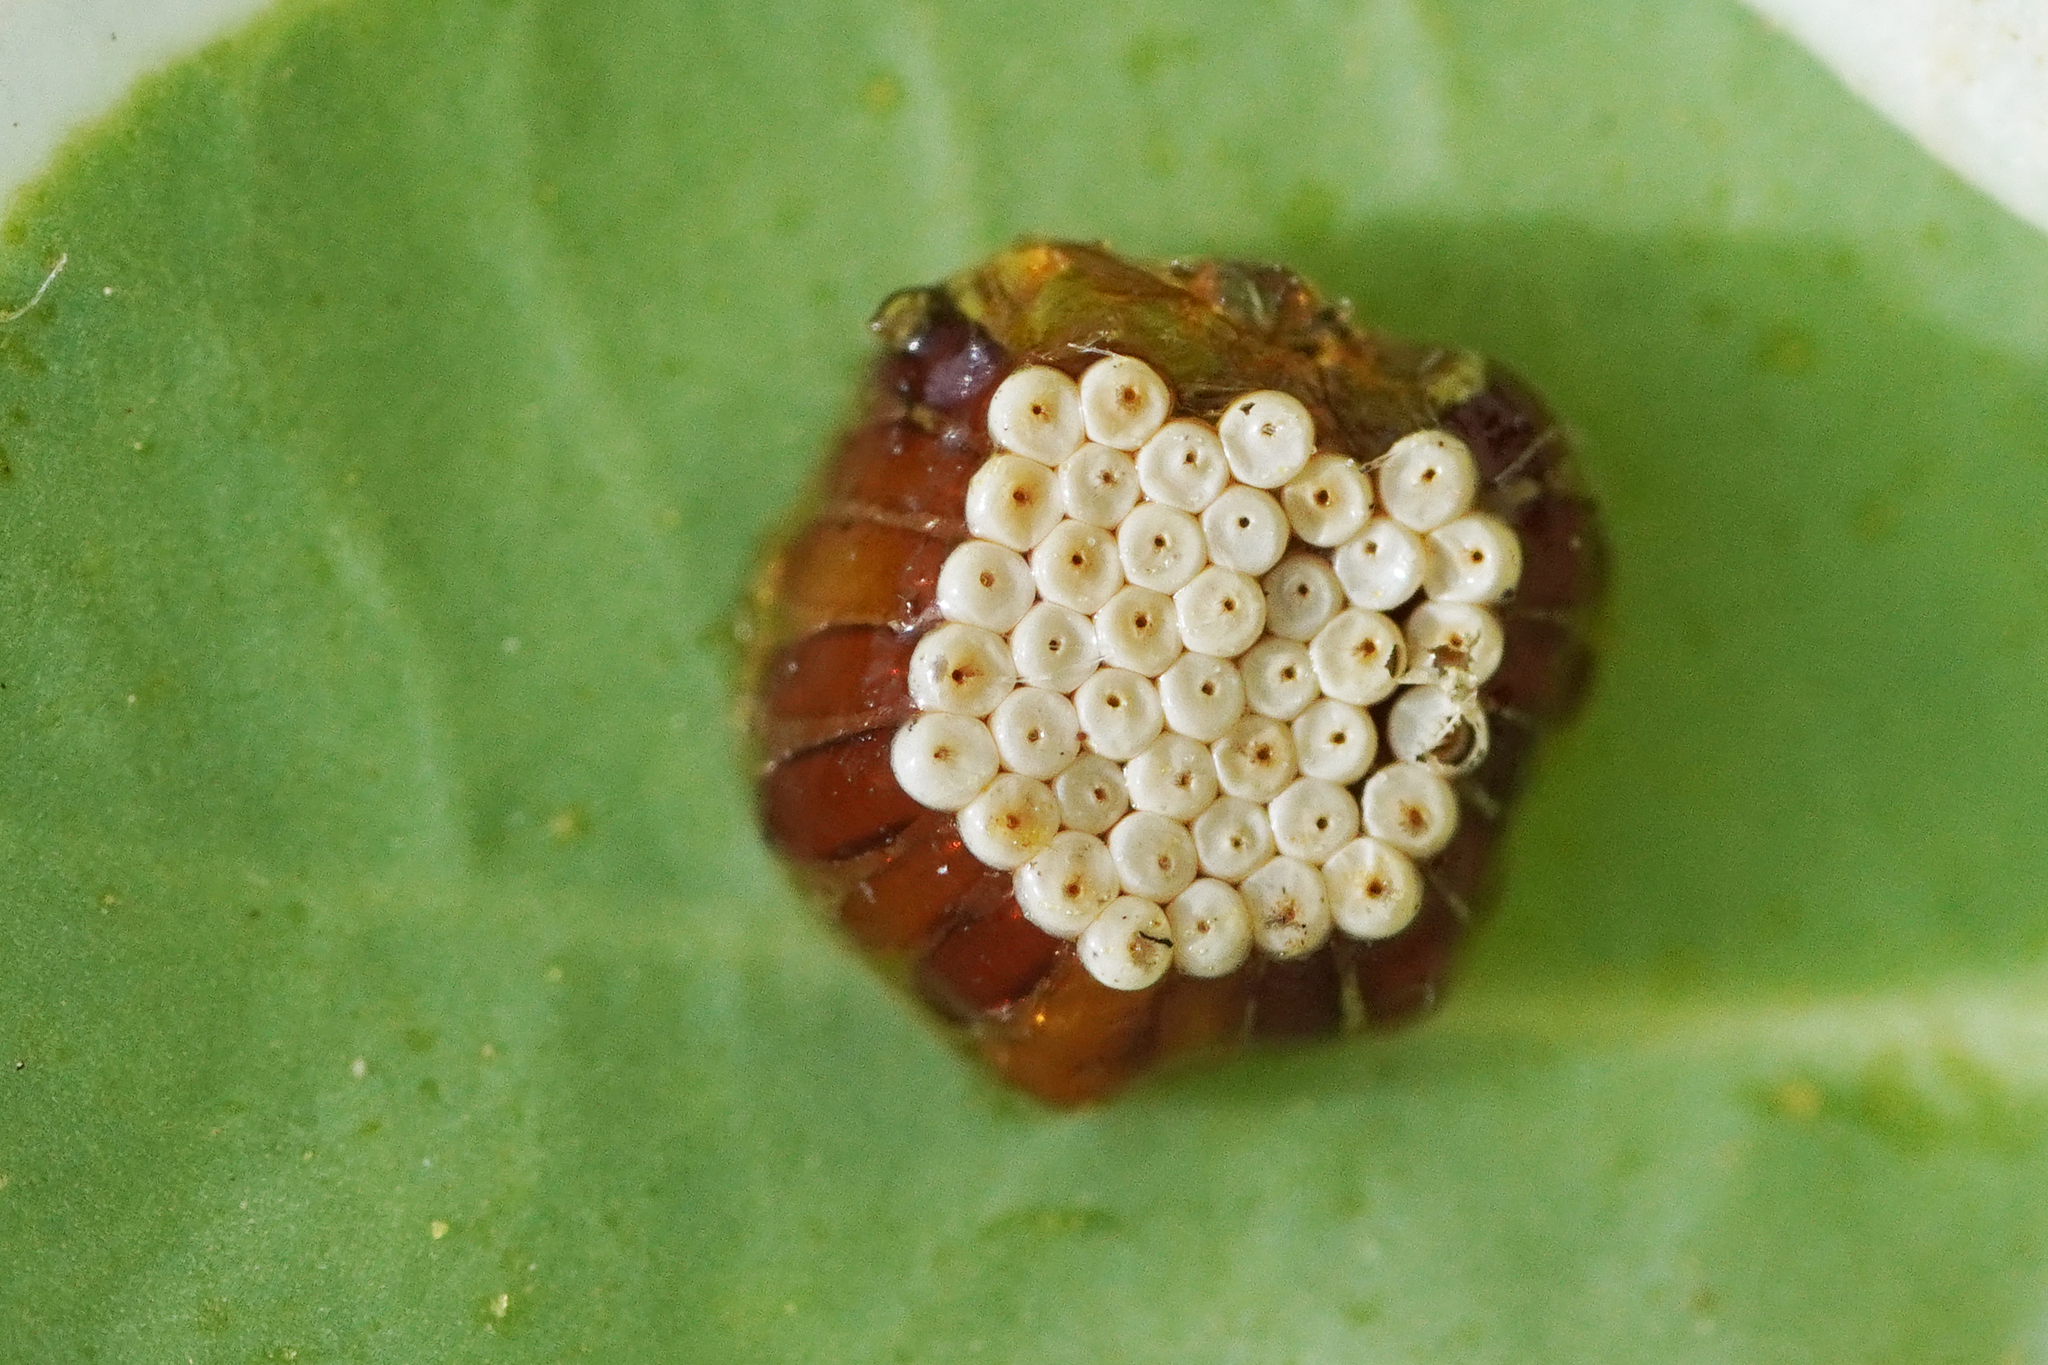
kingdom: Animalia
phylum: Arthropoda
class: Insecta
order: Hemiptera
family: Reduviidae
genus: Zelus
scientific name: Zelus renardii
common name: Assassin bug
